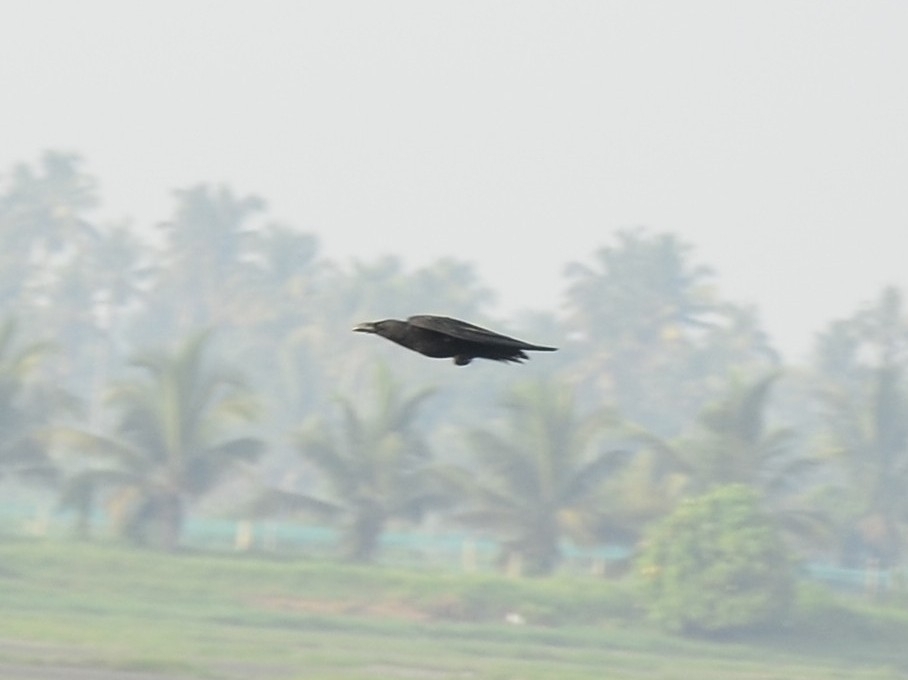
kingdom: Animalia
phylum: Chordata
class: Aves
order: Passeriformes
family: Corvidae
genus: Corvus
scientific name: Corvus macrorhynchos
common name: Large-billed crow
